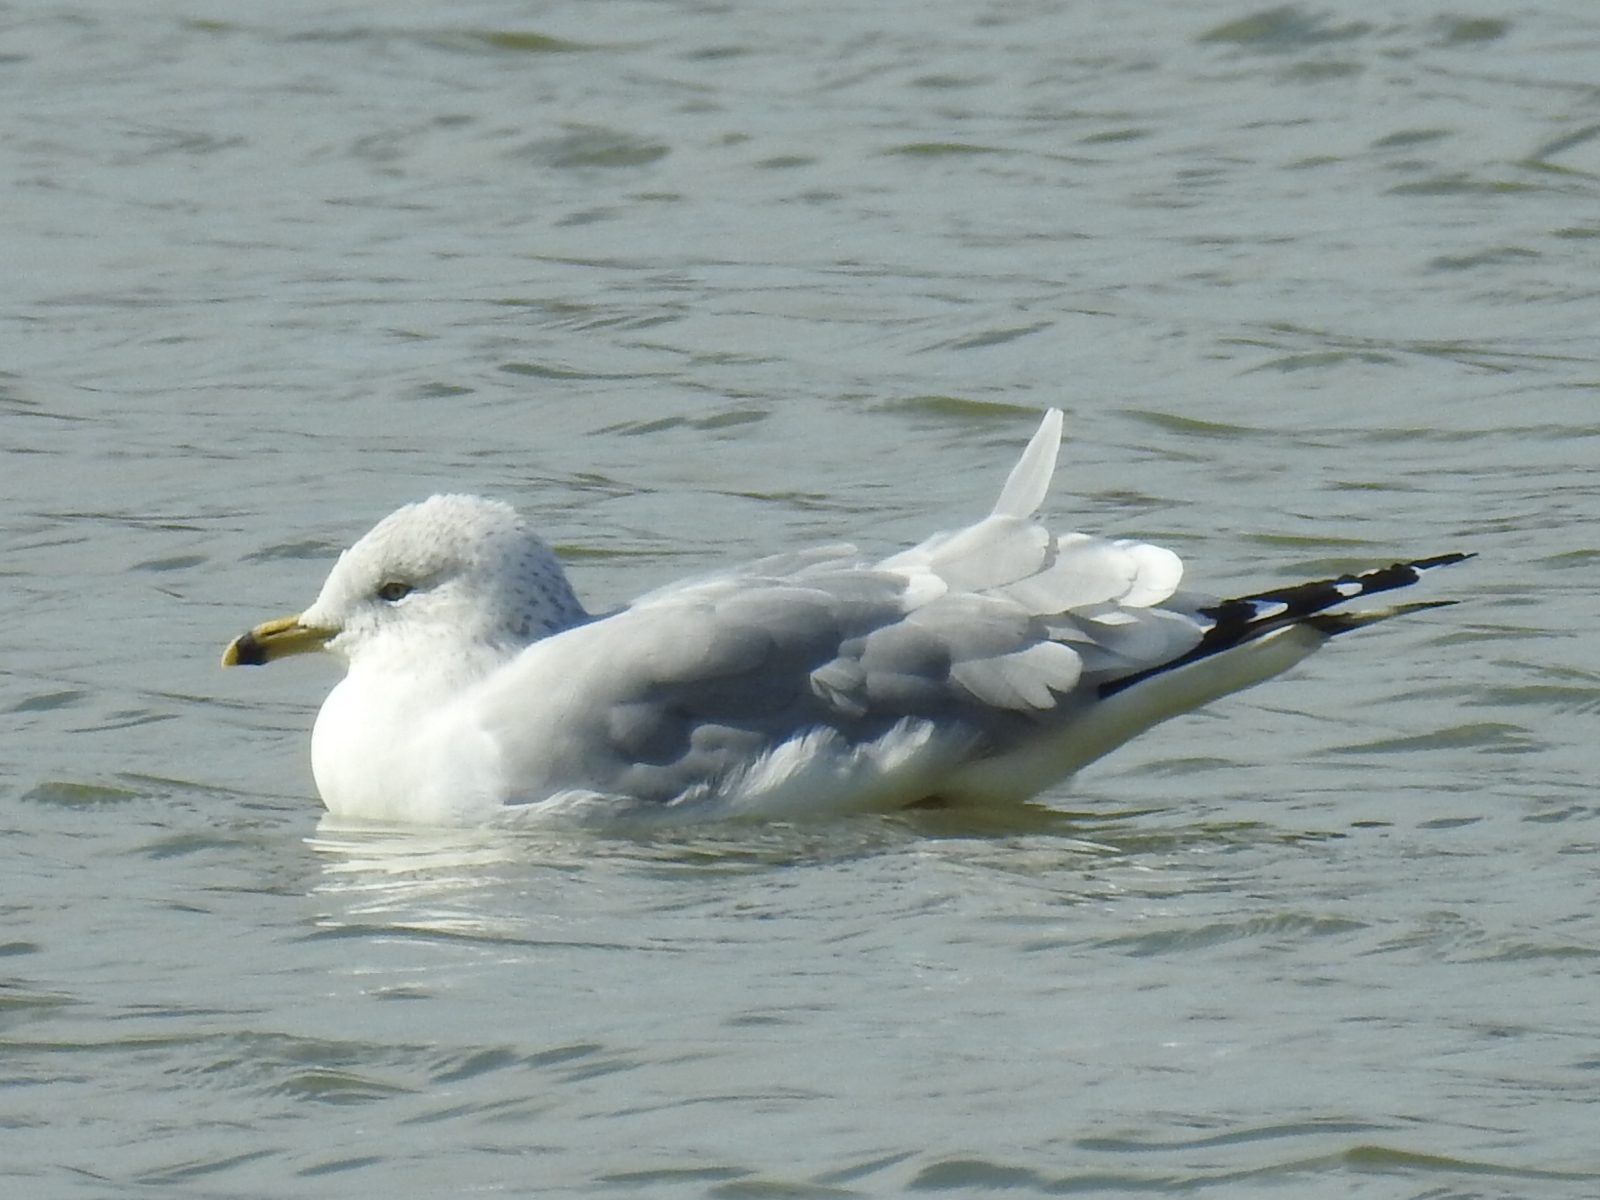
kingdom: Animalia
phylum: Chordata
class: Aves
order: Charadriiformes
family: Laridae
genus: Larus
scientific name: Larus delawarensis
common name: Ring-billed gull
